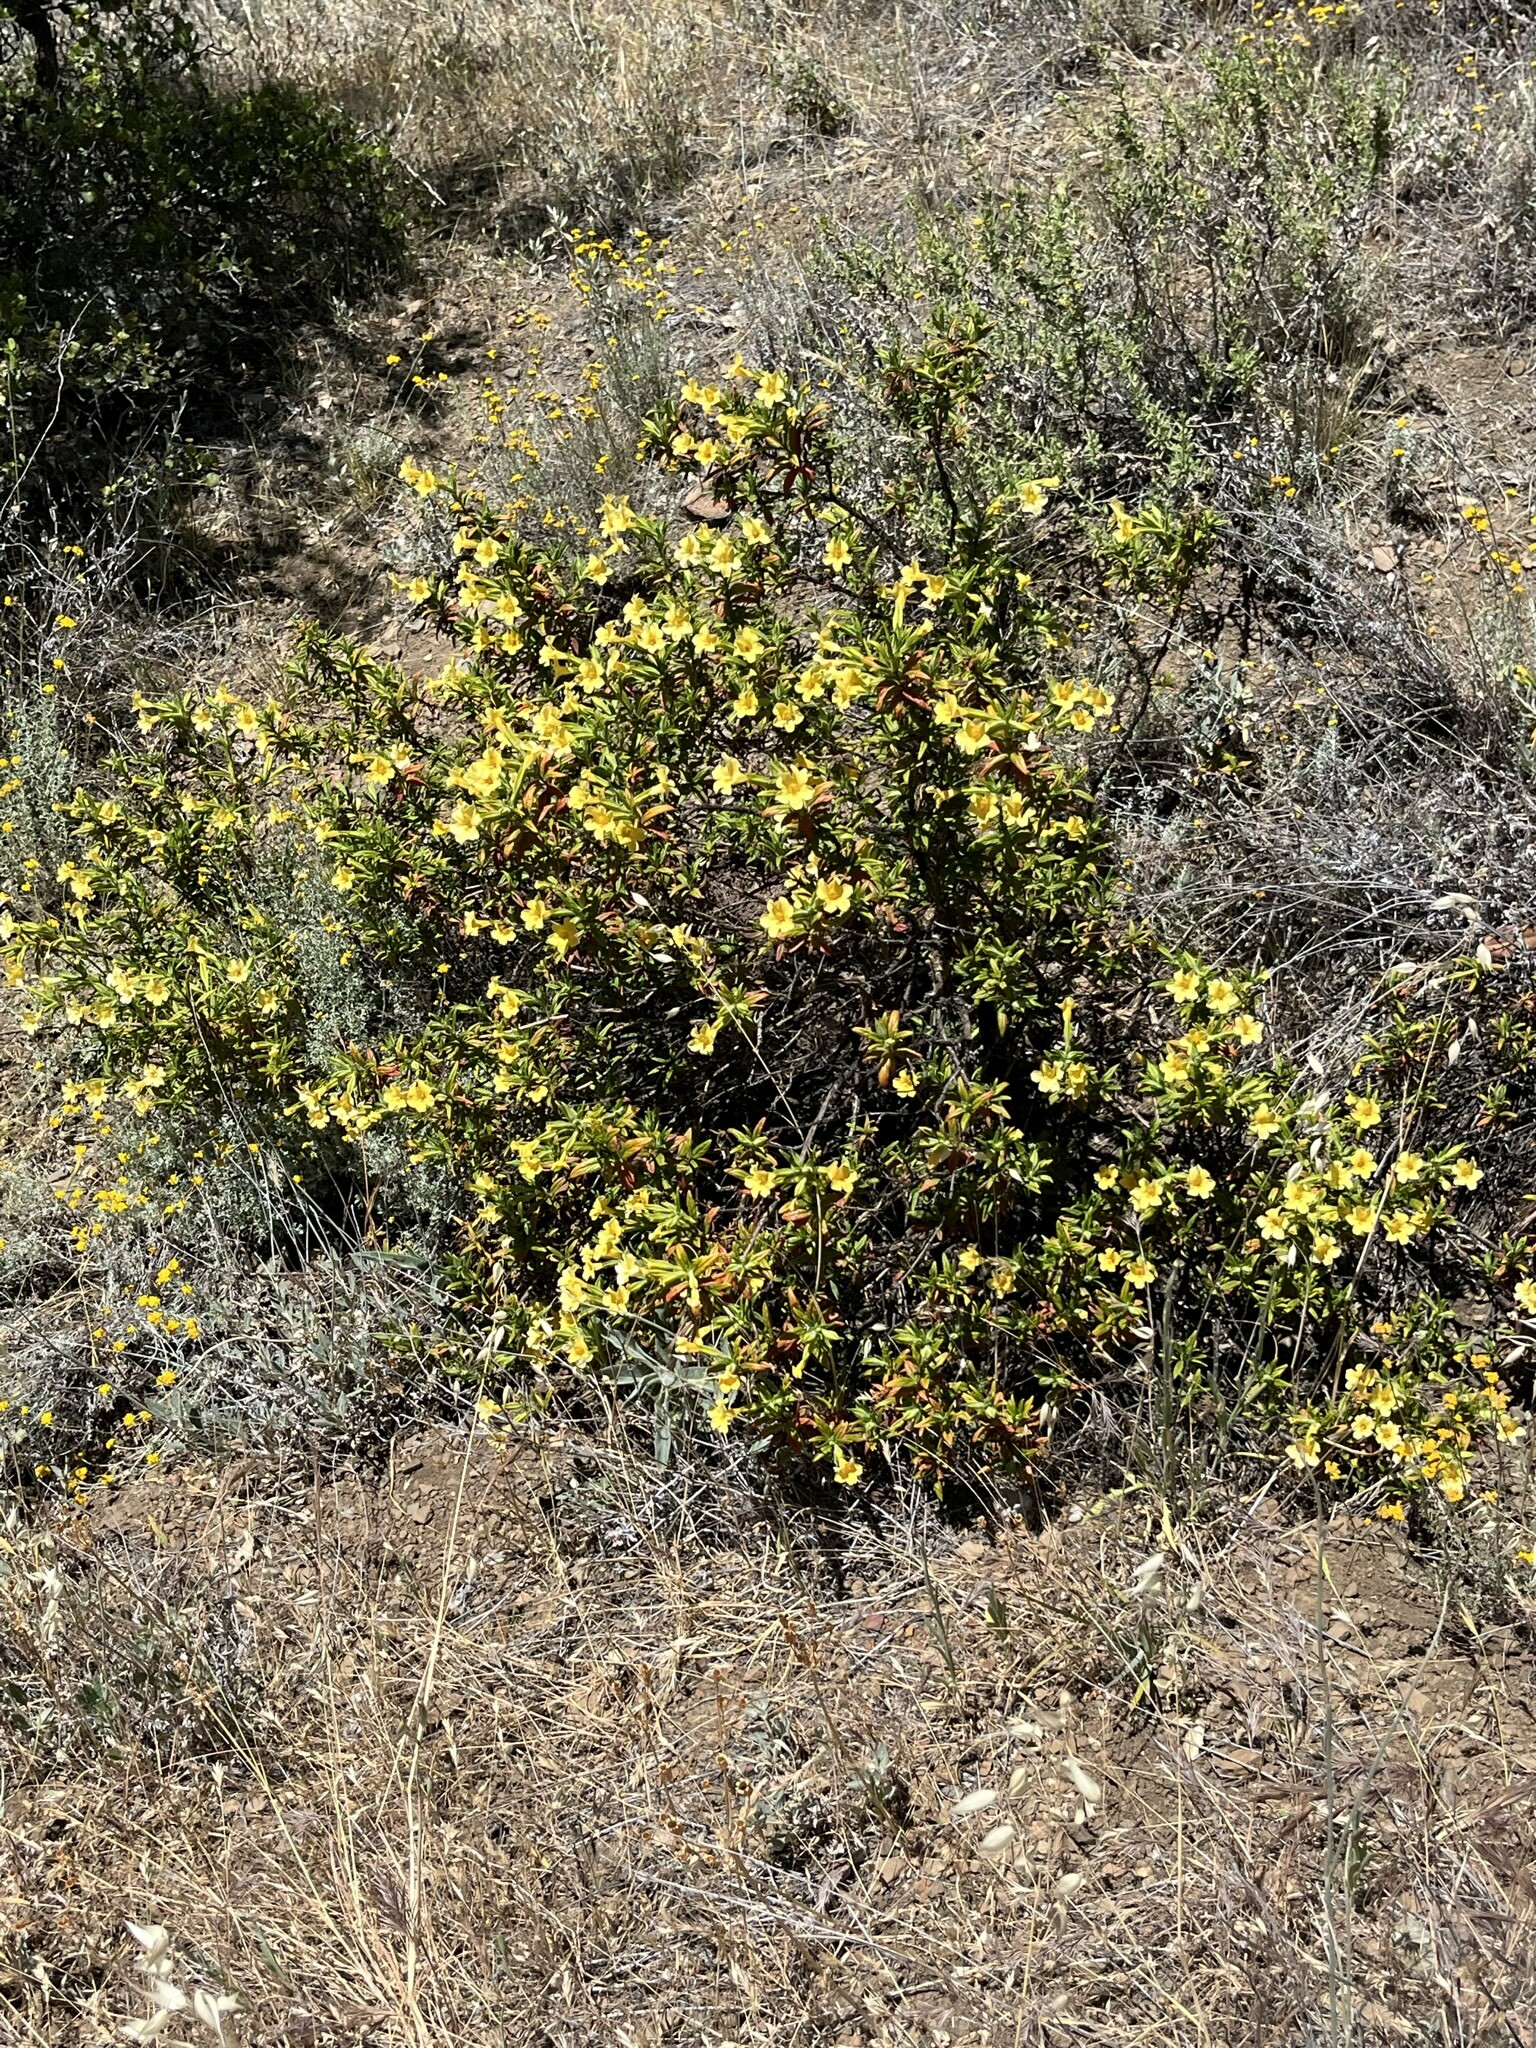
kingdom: Plantae
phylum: Tracheophyta
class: Magnoliopsida
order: Lamiales
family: Phrymaceae
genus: Diplacus
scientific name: Diplacus calycinus
